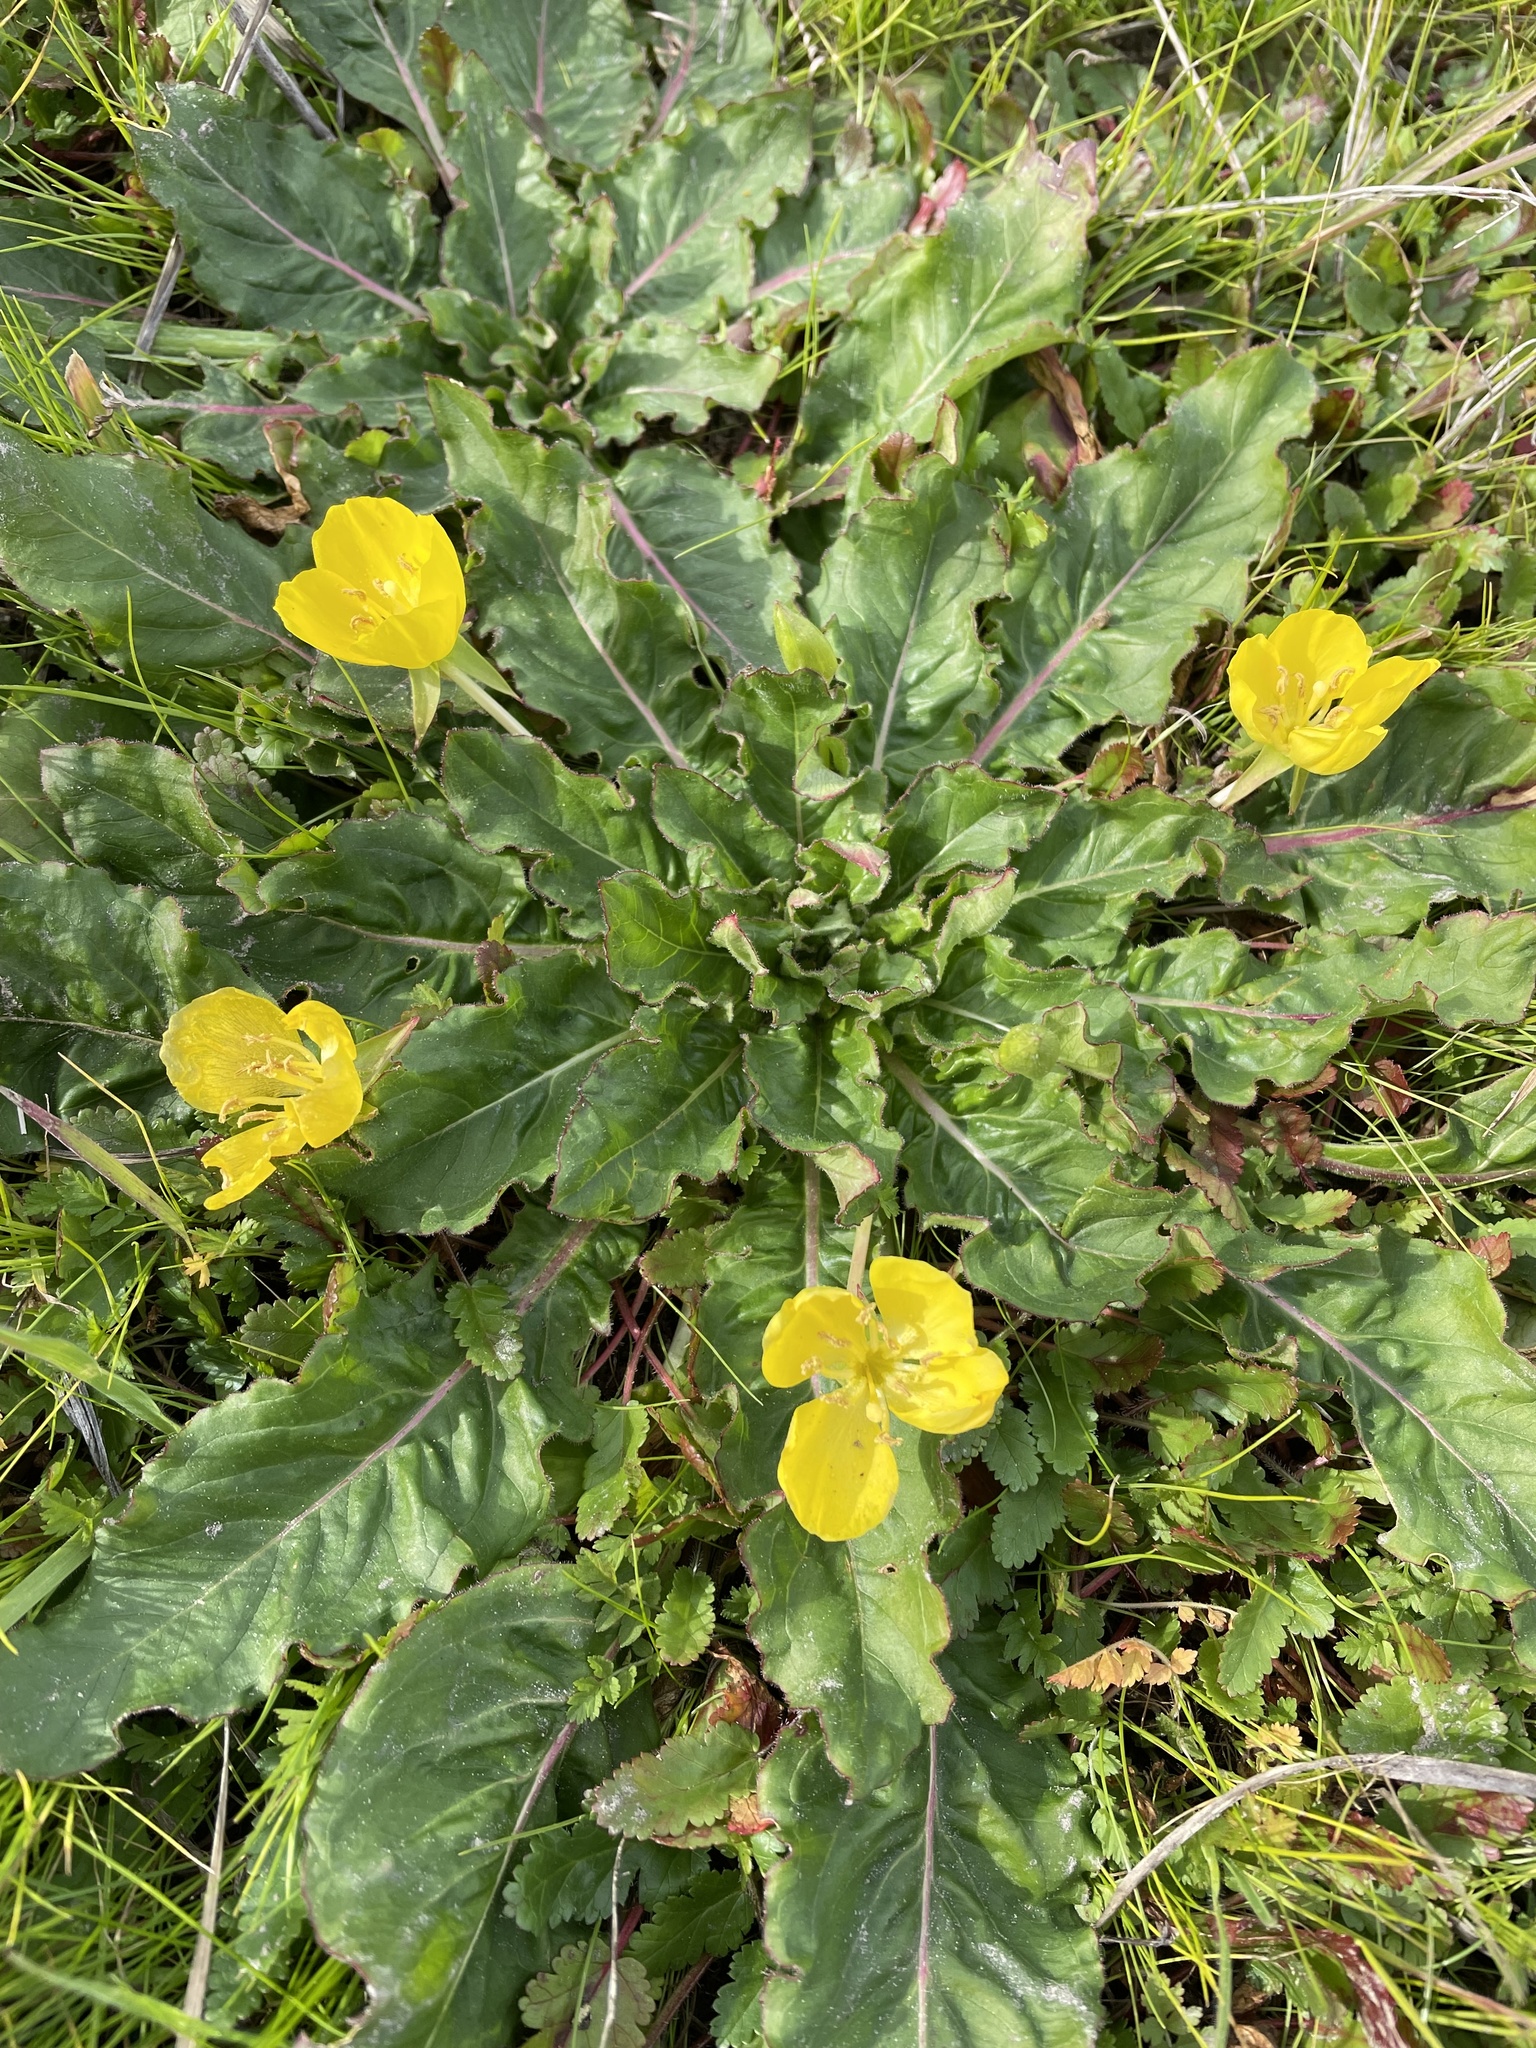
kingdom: Plantae
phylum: Tracheophyta
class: Magnoliopsida
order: Myrtales
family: Onagraceae
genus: Taraxia
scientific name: Taraxia ovata
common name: Goldeneggs
